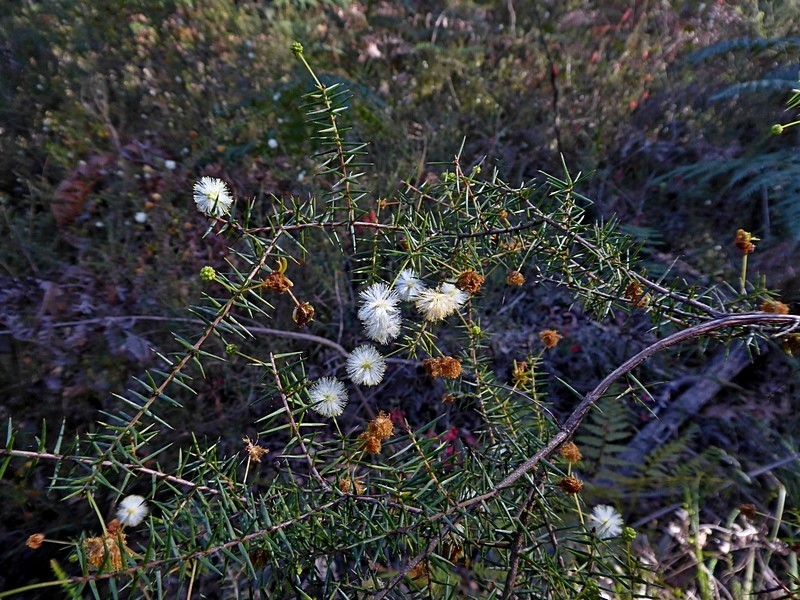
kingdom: Plantae
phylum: Tracheophyta
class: Magnoliopsida
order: Fabales
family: Fabaceae
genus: Acacia
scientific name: Acacia ulicifolia
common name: Juniper wattle
